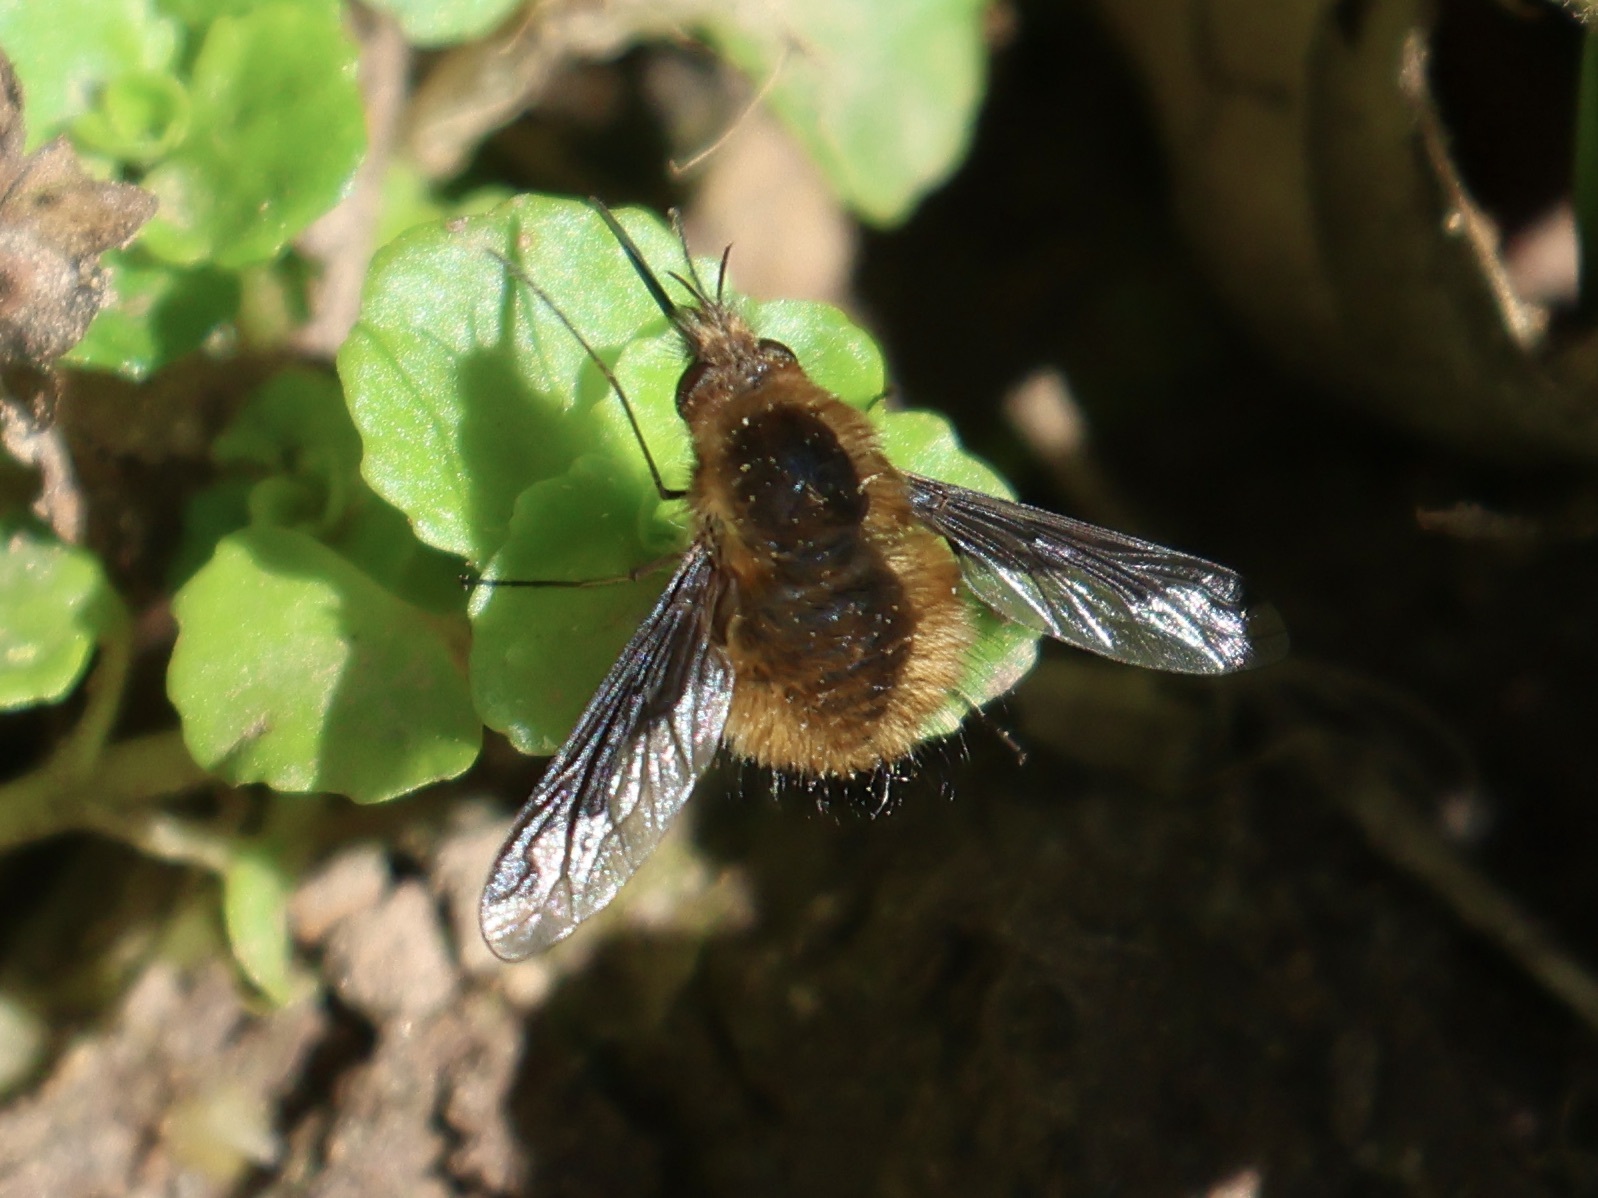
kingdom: Animalia
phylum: Arthropoda
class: Insecta
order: Diptera
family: Bombyliidae
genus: Bombylius
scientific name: Bombylius major
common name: Bee fly
